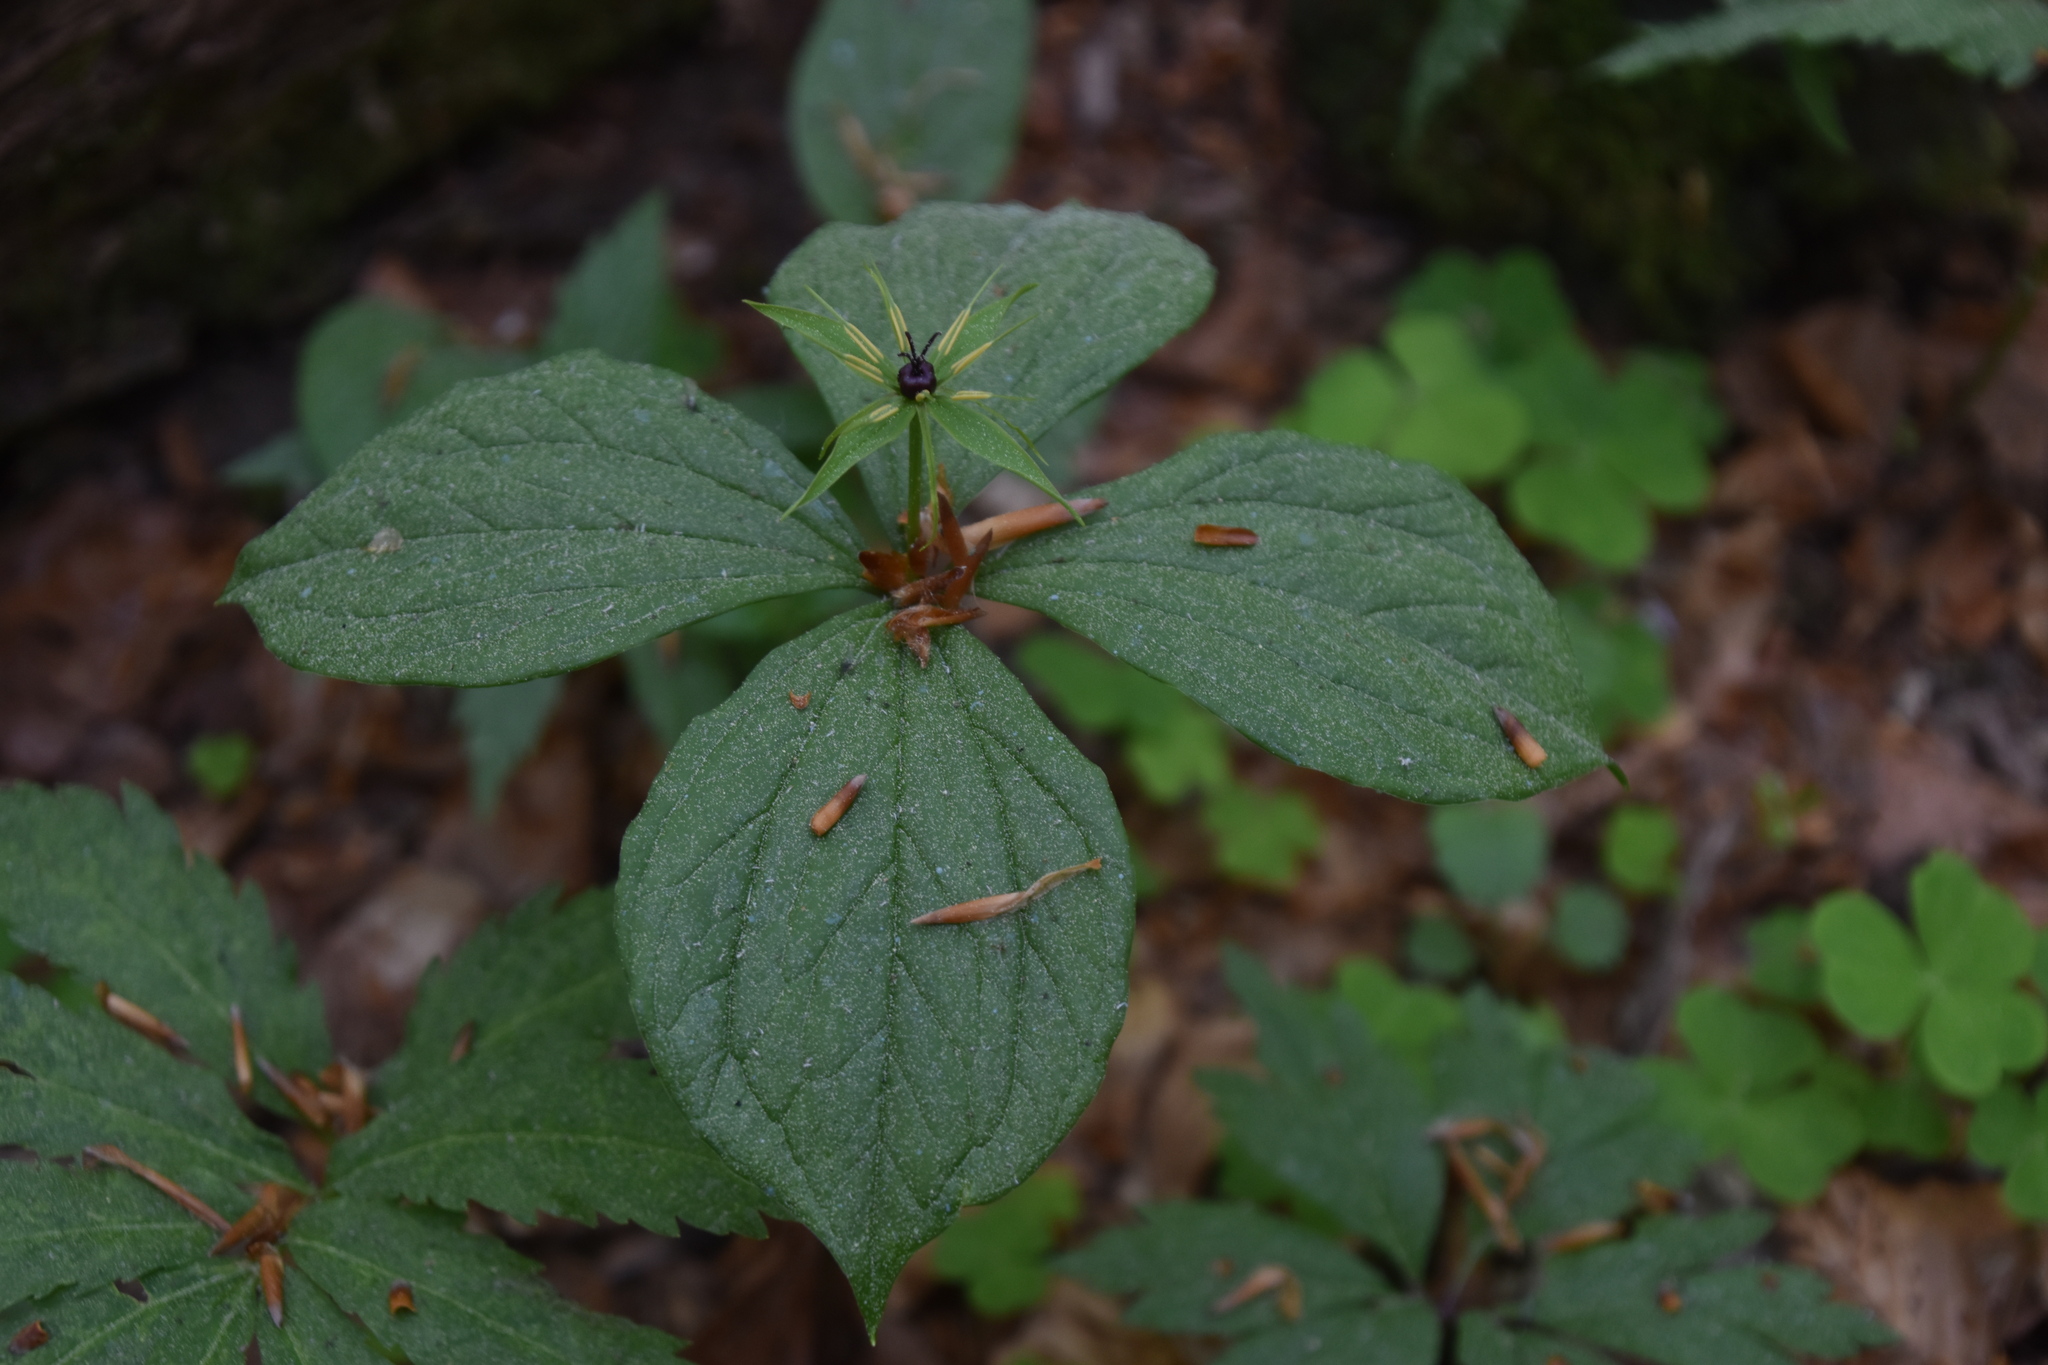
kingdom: Plantae
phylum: Tracheophyta
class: Liliopsida
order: Liliales
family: Melanthiaceae
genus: Paris
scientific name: Paris quadrifolia
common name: Herb-paris
